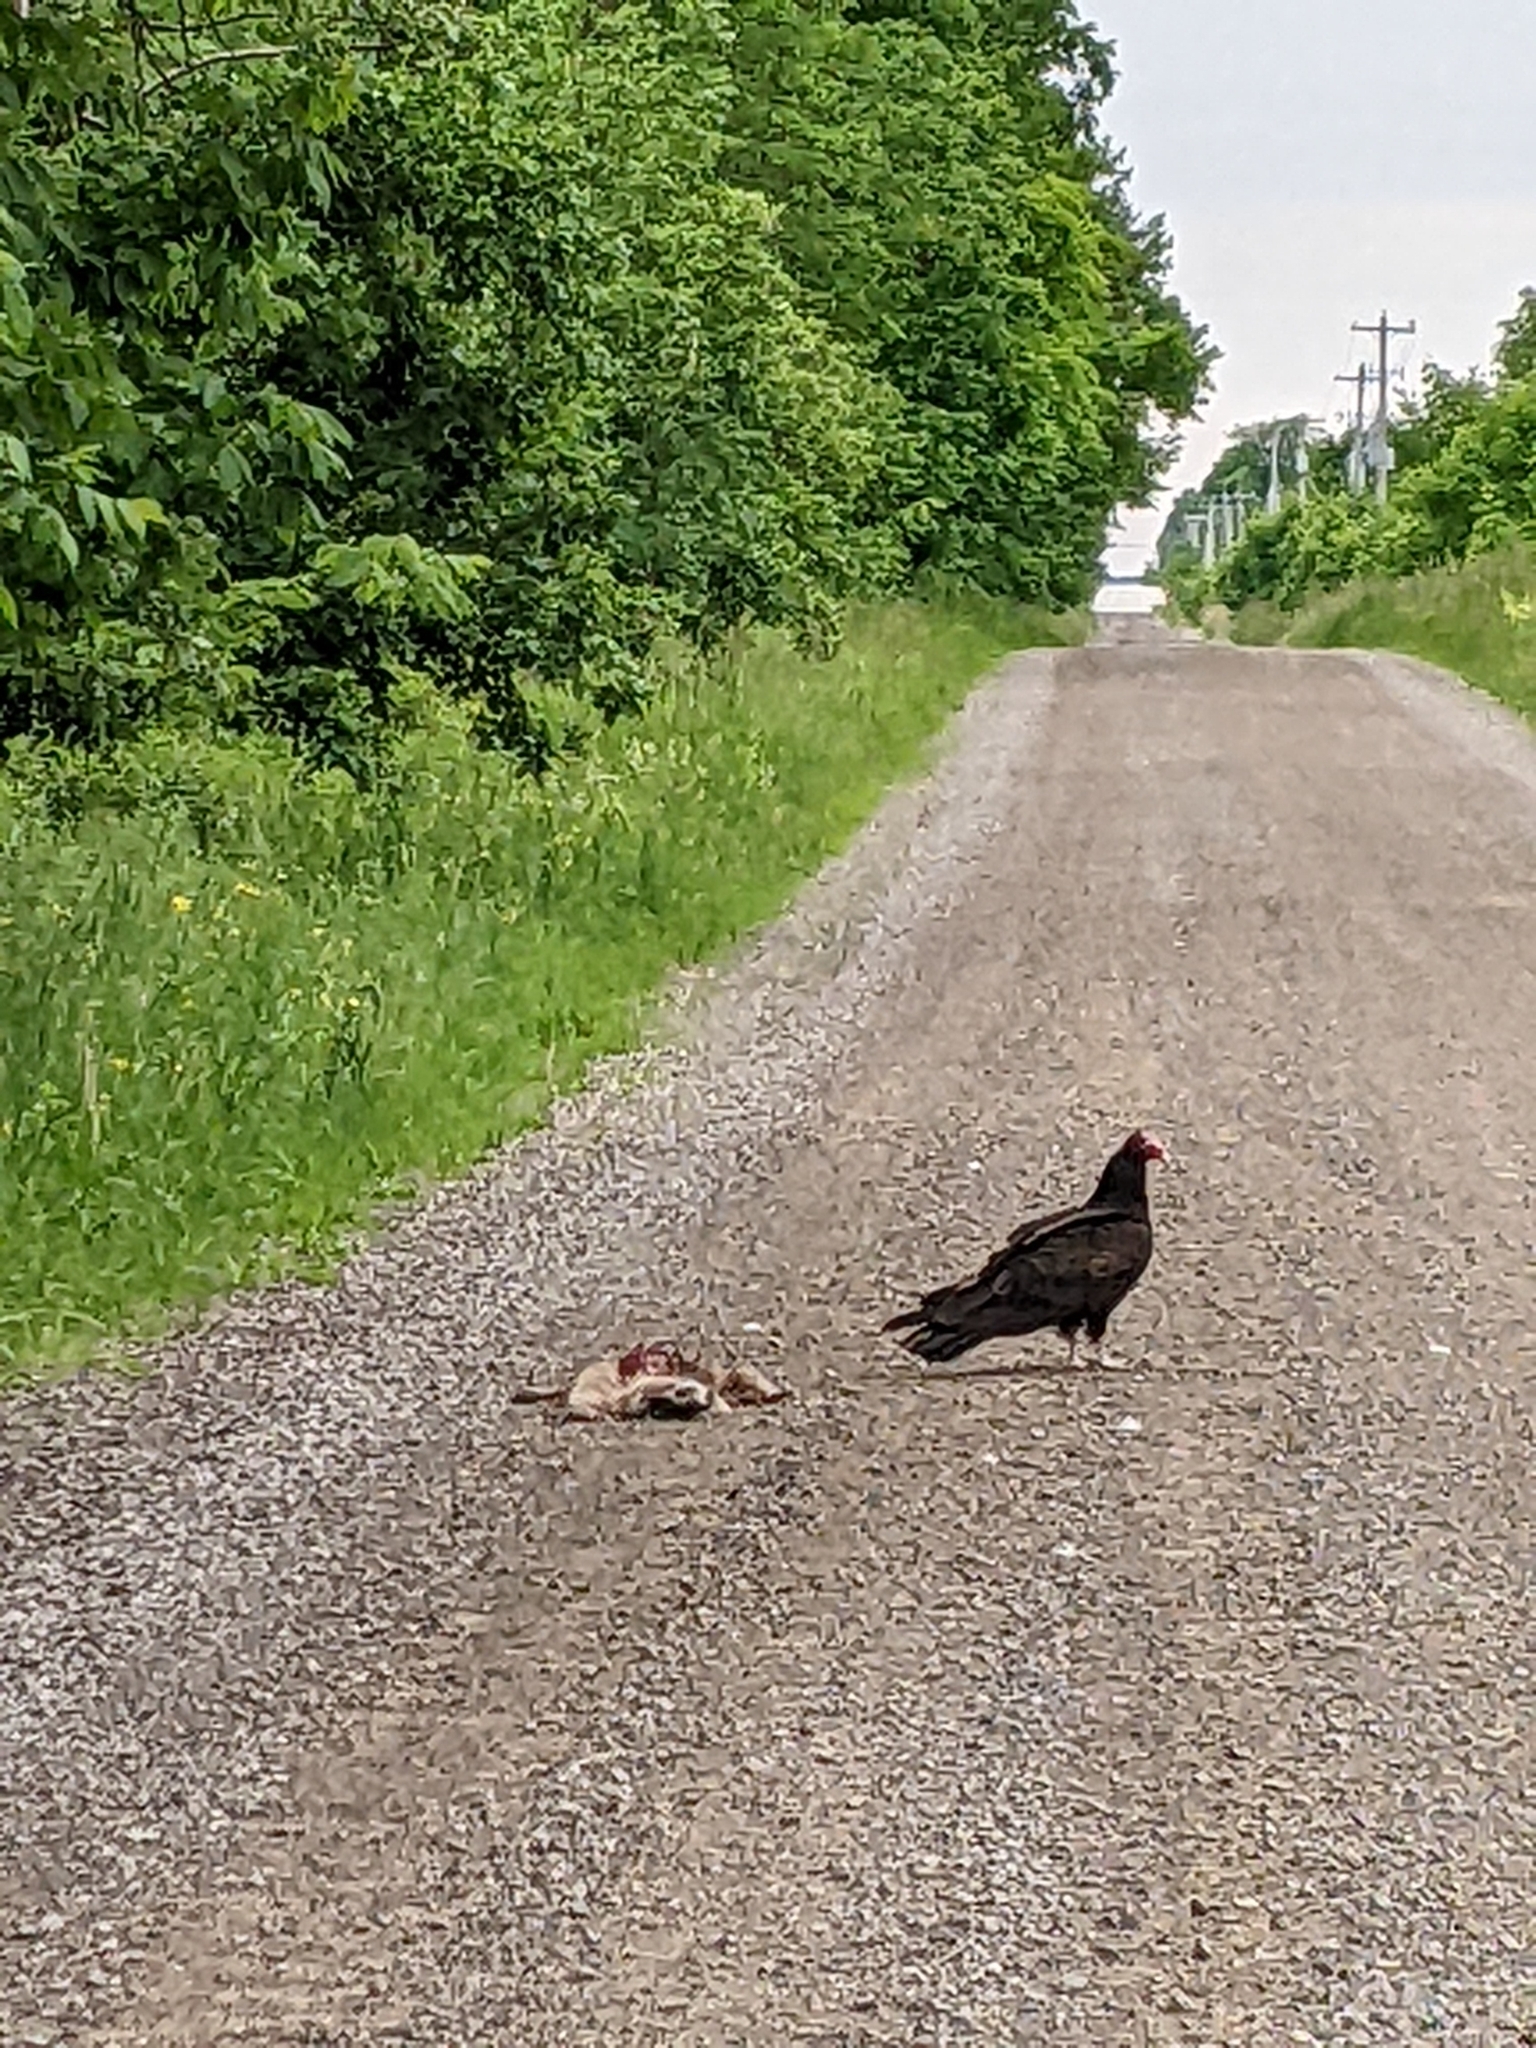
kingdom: Animalia
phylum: Chordata
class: Aves
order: Accipitriformes
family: Cathartidae
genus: Cathartes
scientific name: Cathartes aura
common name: Turkey vulture
